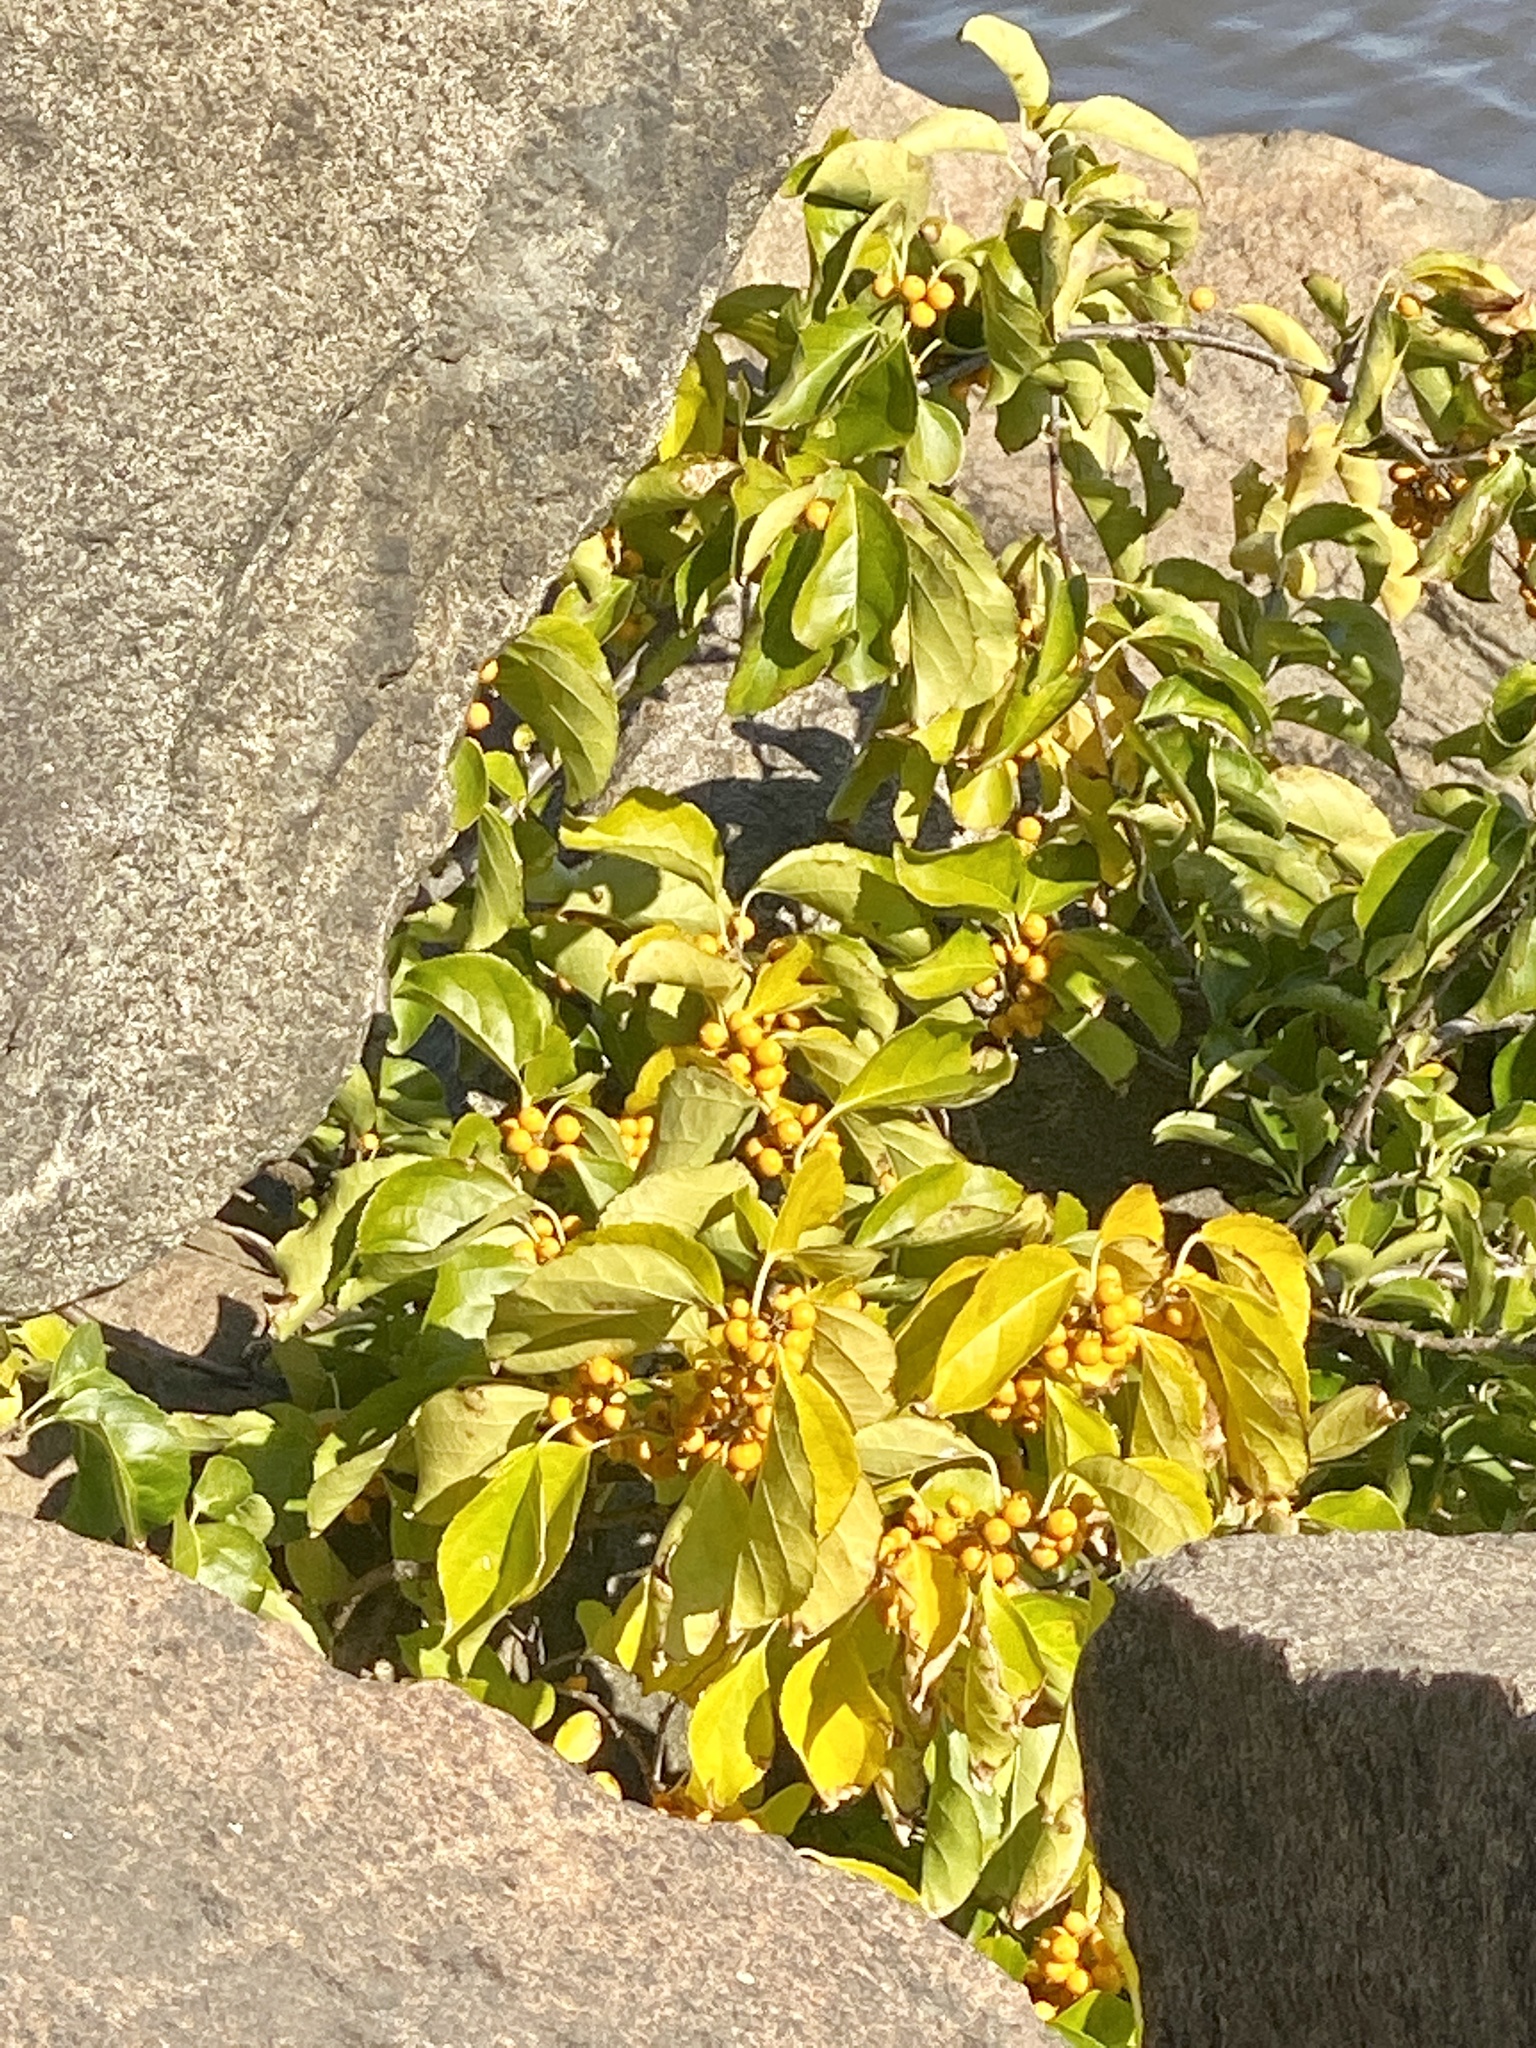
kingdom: Plantae
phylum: Tracheophyta
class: Magnoliopsida
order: Celastrales
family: Celastraceae
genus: Celastrus
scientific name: Celastrus orbiculatus
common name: Oriental bittersweet
